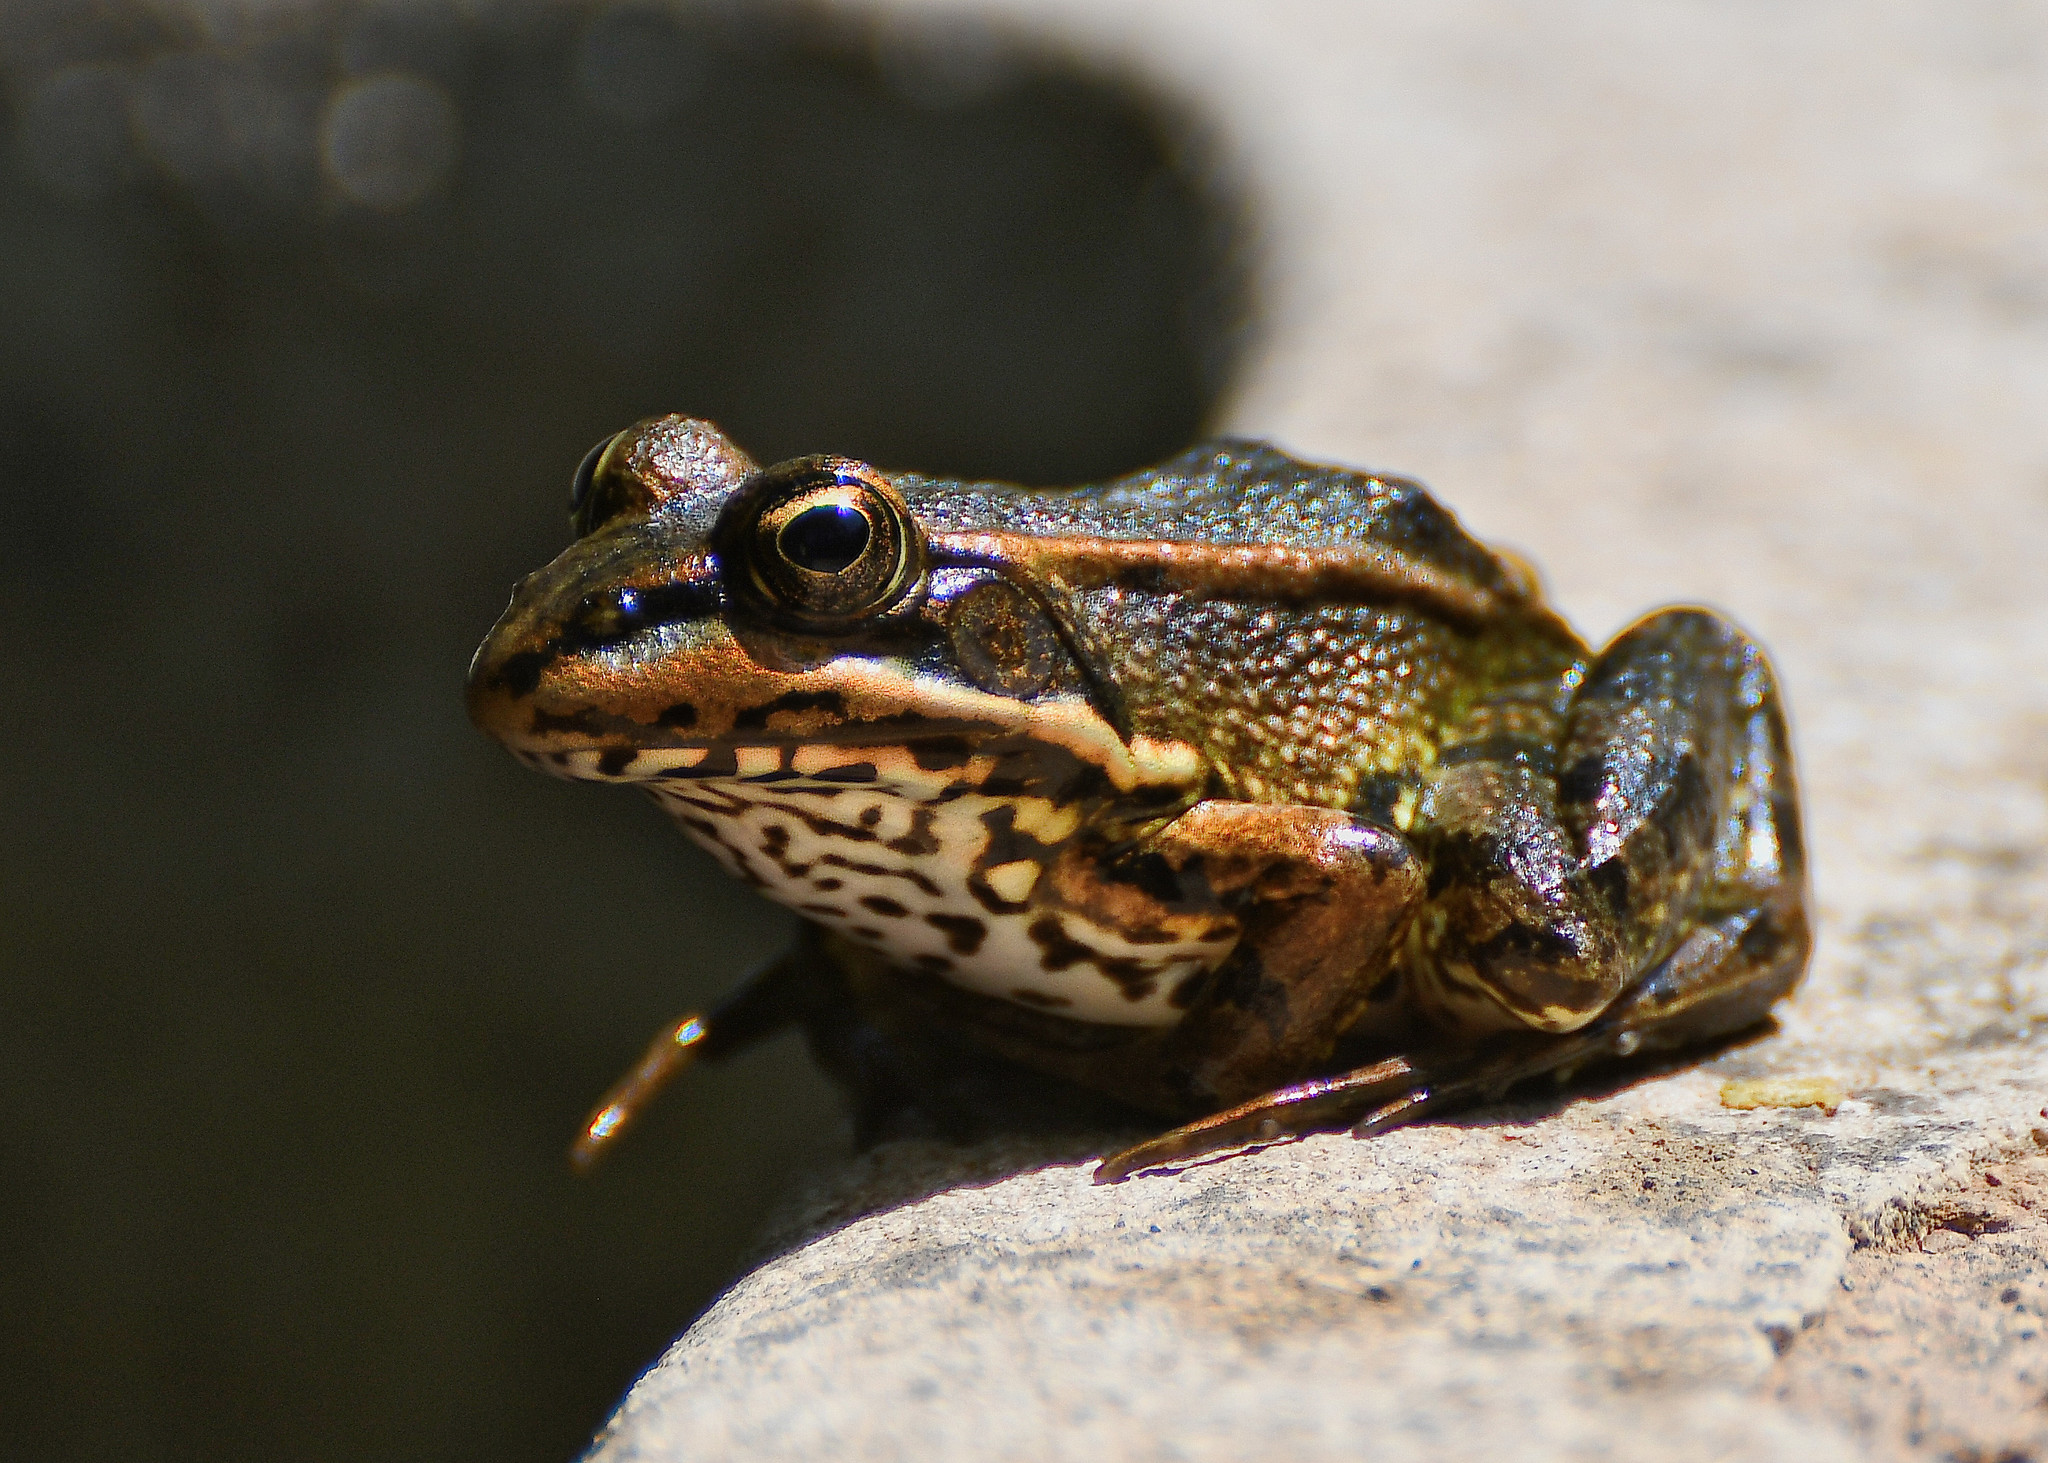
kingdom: Animalia
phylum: Chordata
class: Amphibia
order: Anura
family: Ranidae
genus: Pelophylax
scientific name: Pelophylax perezi
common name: Perez's frog
